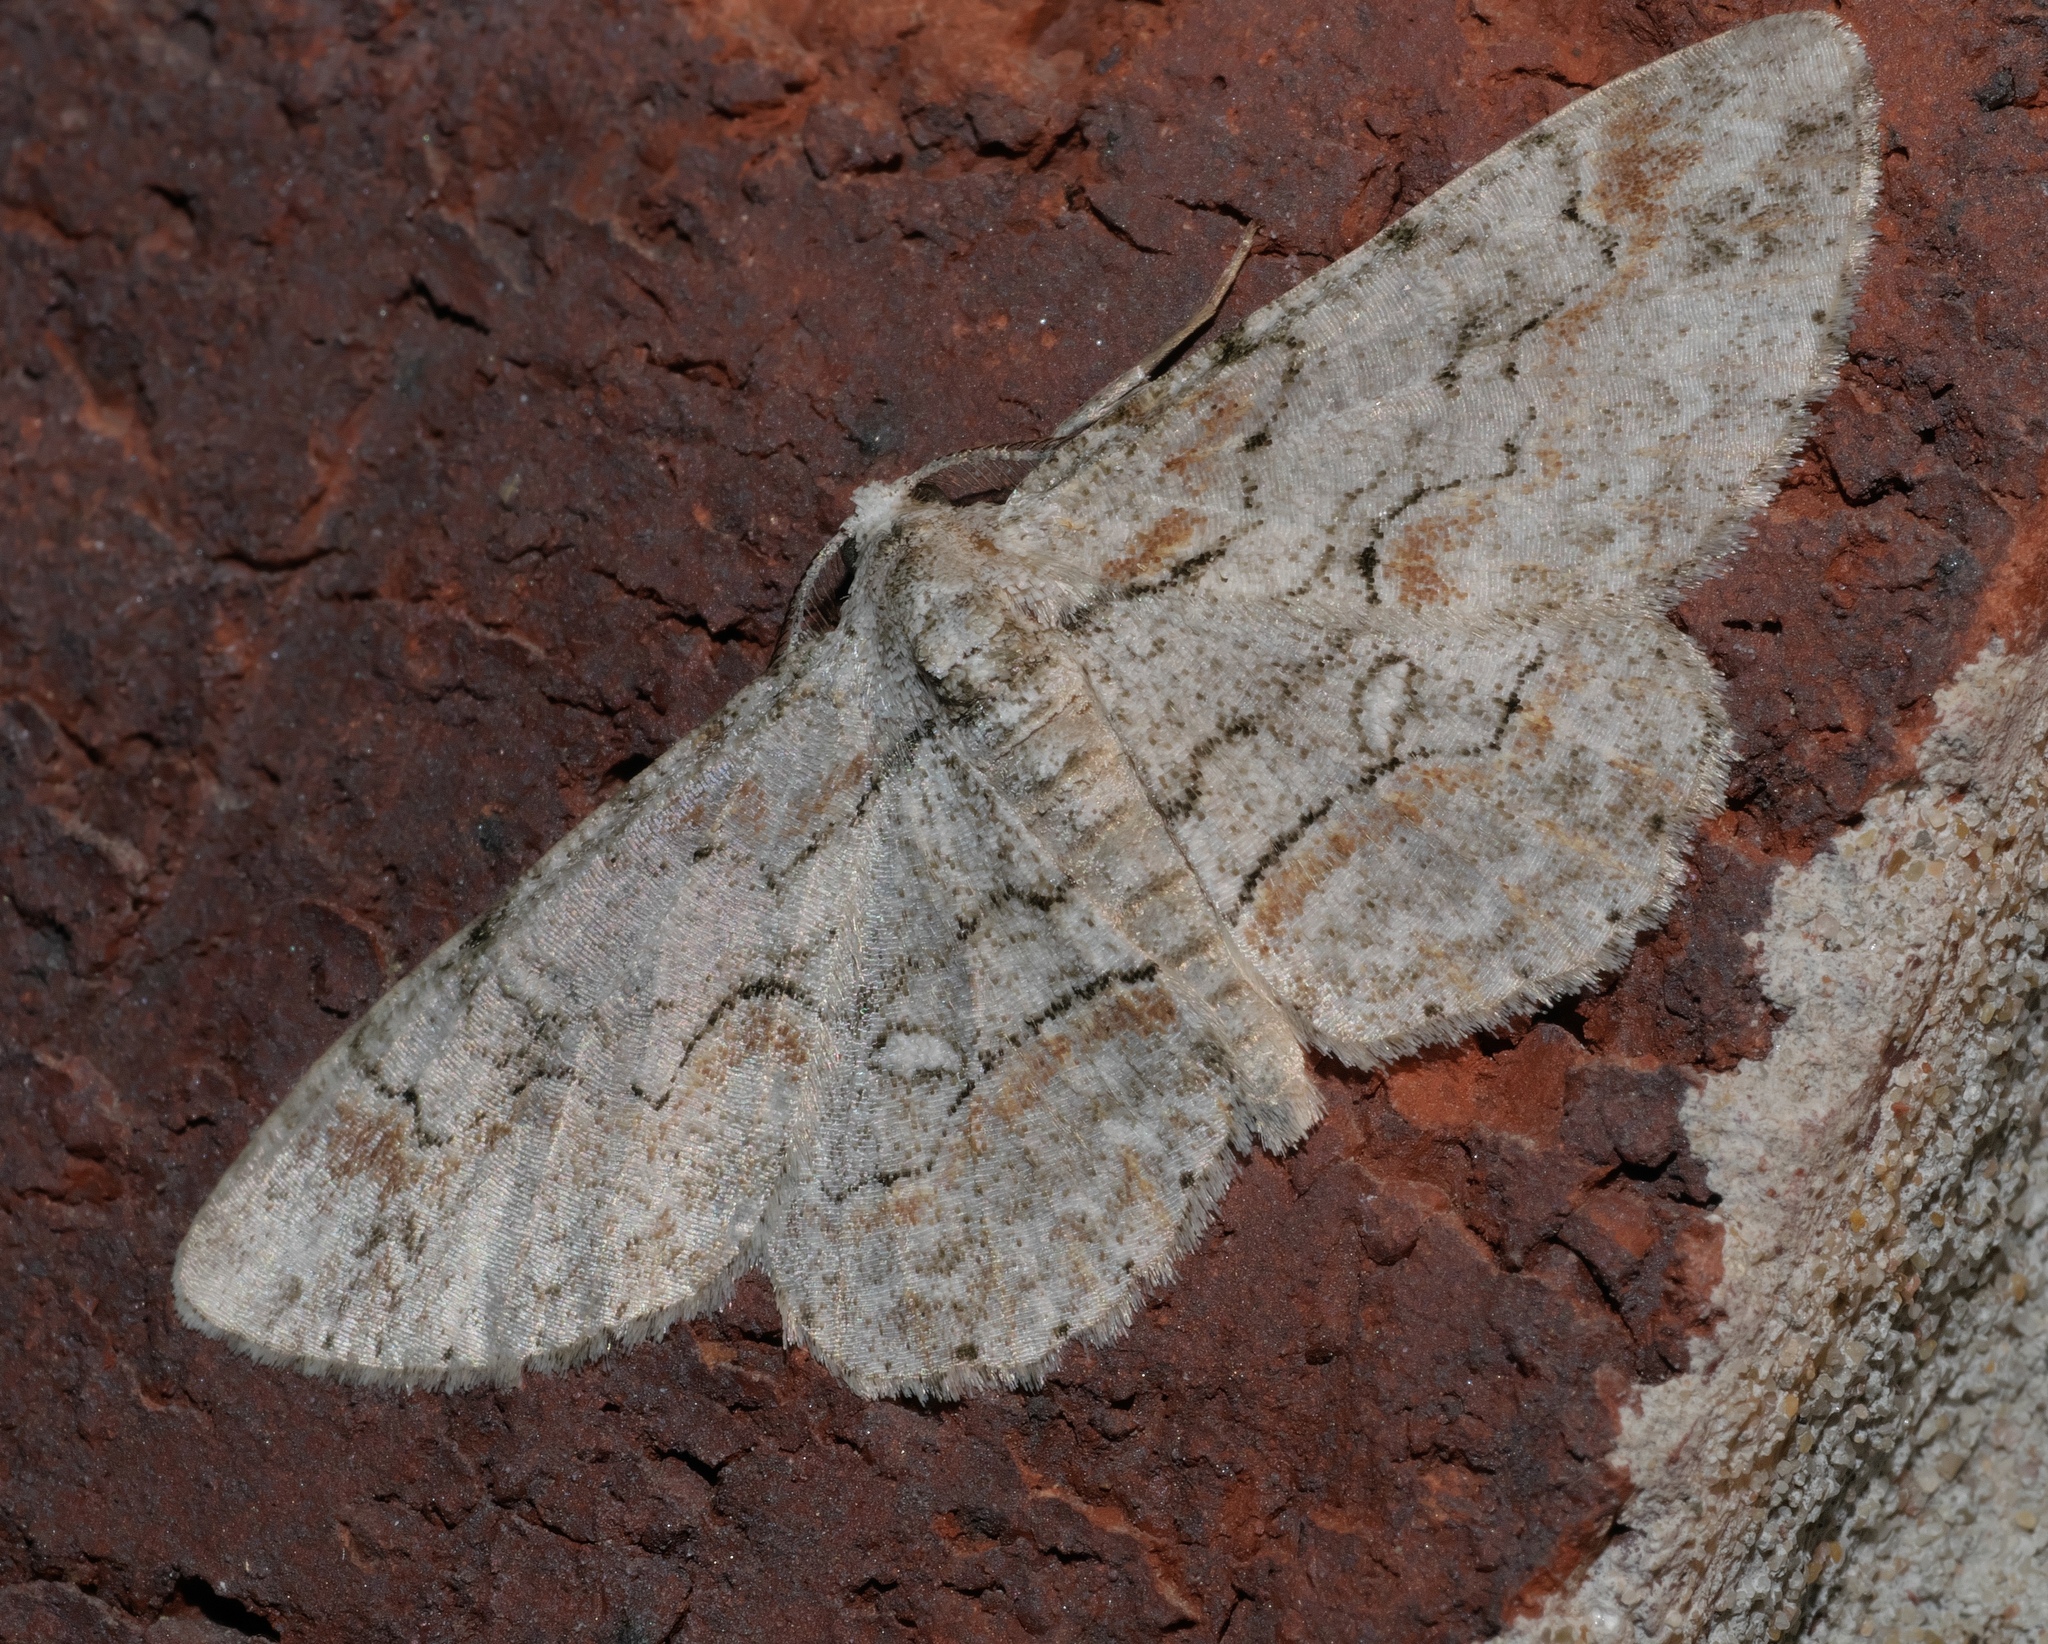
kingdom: Animalia
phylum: Arthropoda
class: Insecta
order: Lepidoptera
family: Geometridae
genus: Iridopsis
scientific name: Iridopsis defectaria
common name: Brown-shaded gray
